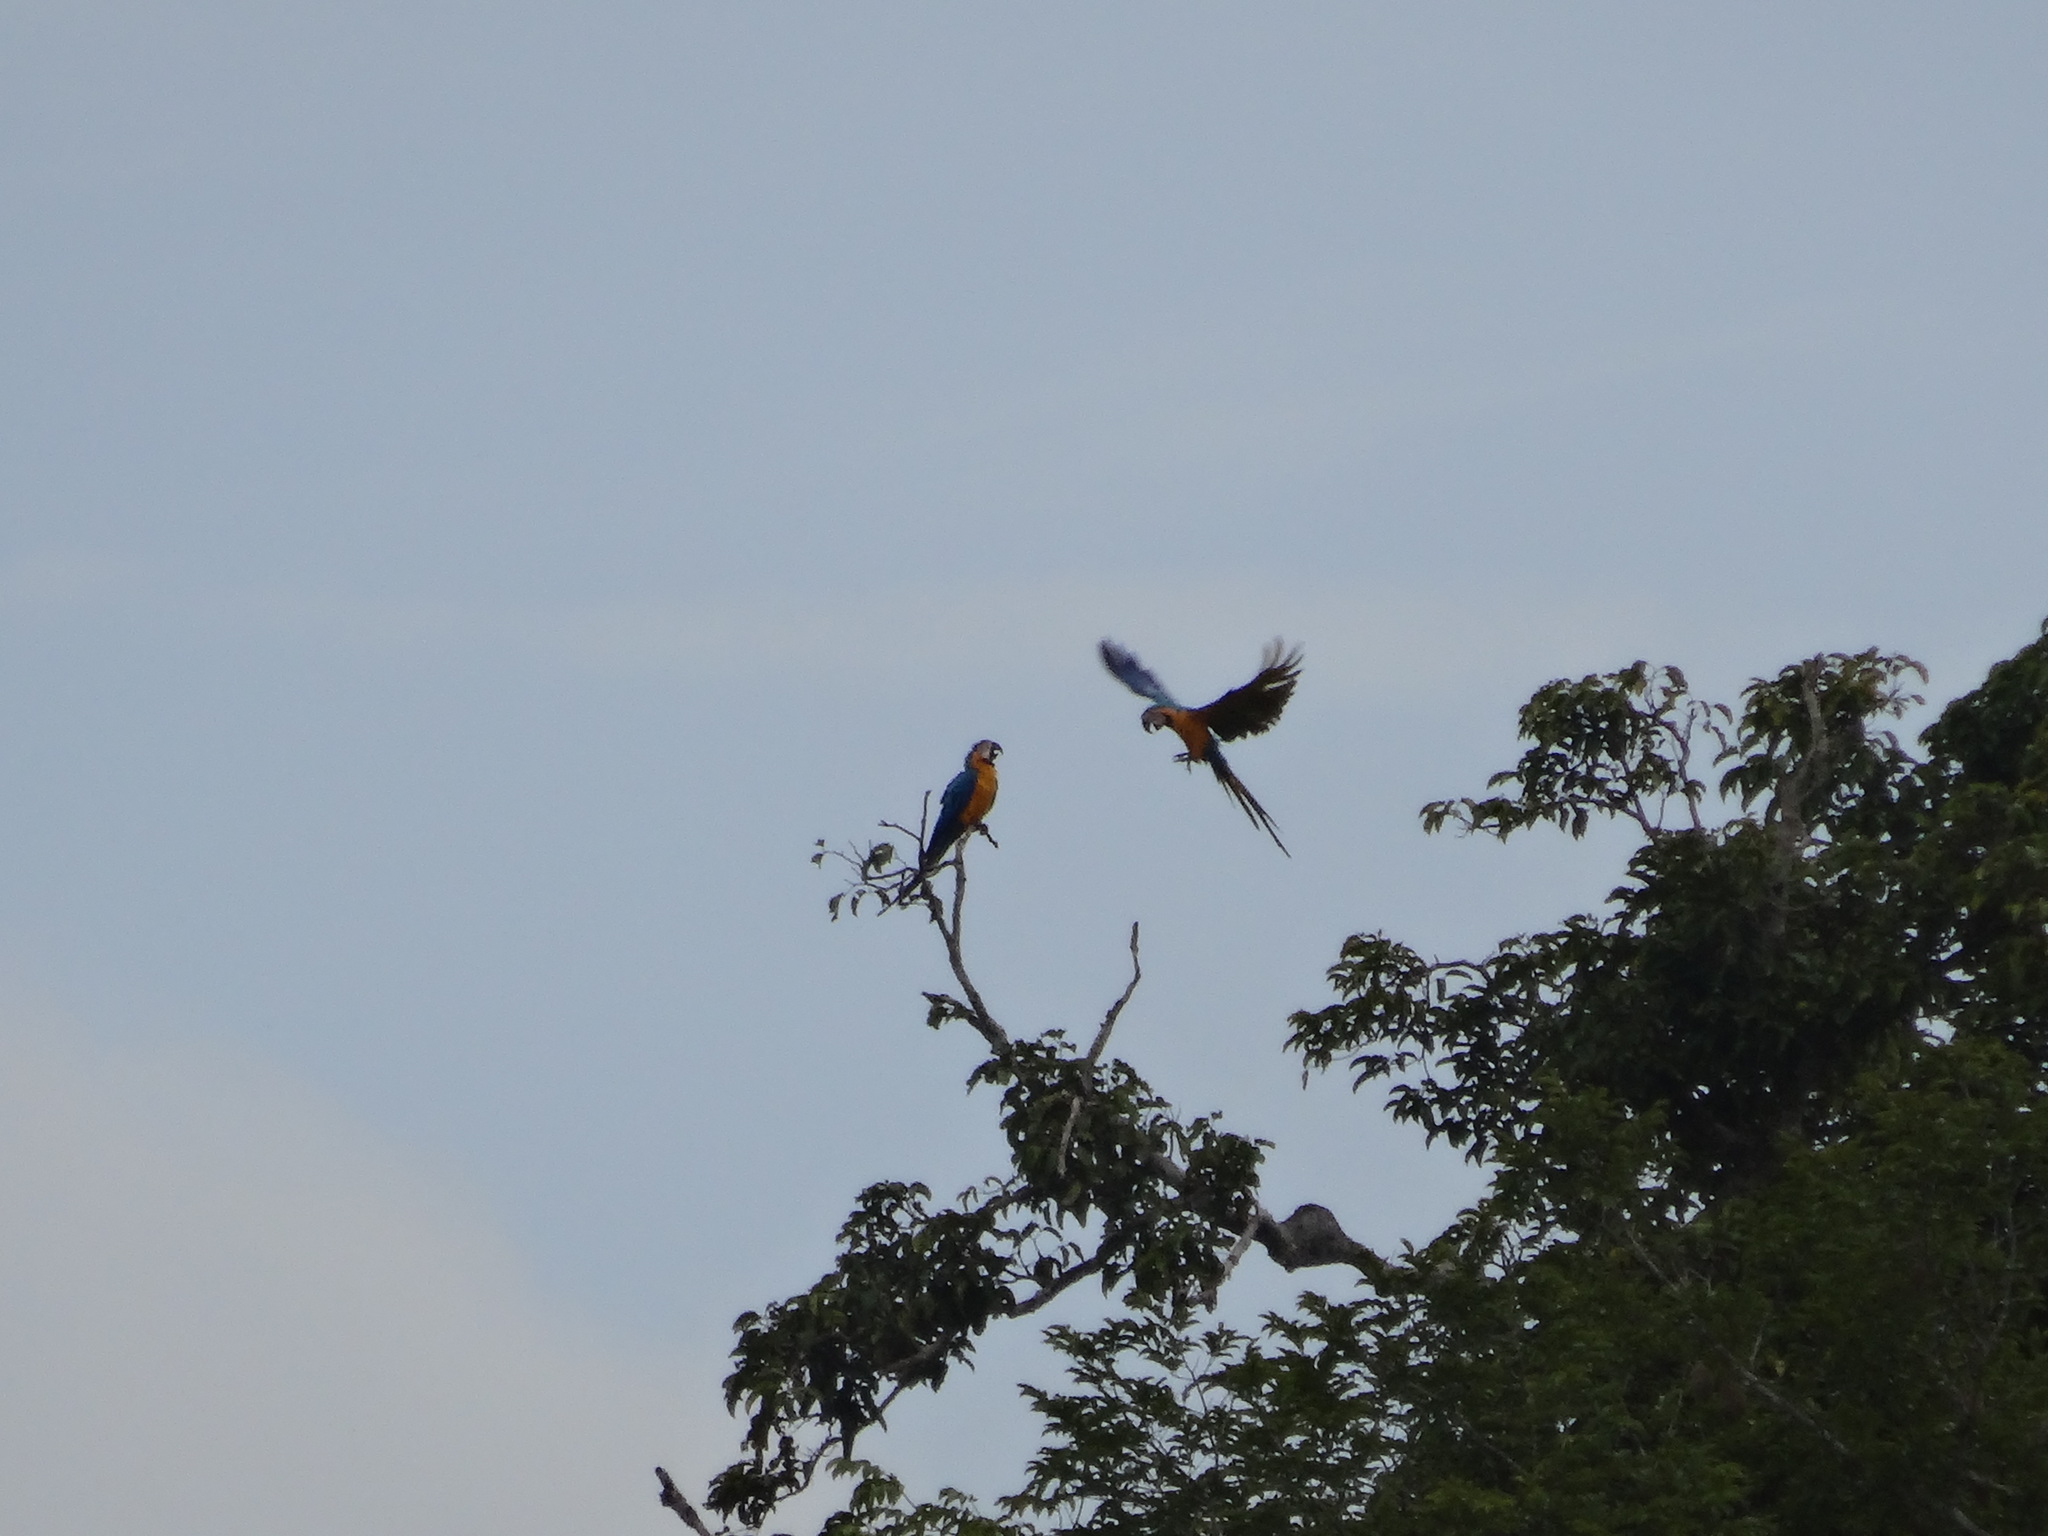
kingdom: Animalia
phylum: Chordata
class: Aves
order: Psittaciformes
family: Psittacidae
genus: Ara
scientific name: Ara ararauna
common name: Blue-and-yellow macaw
